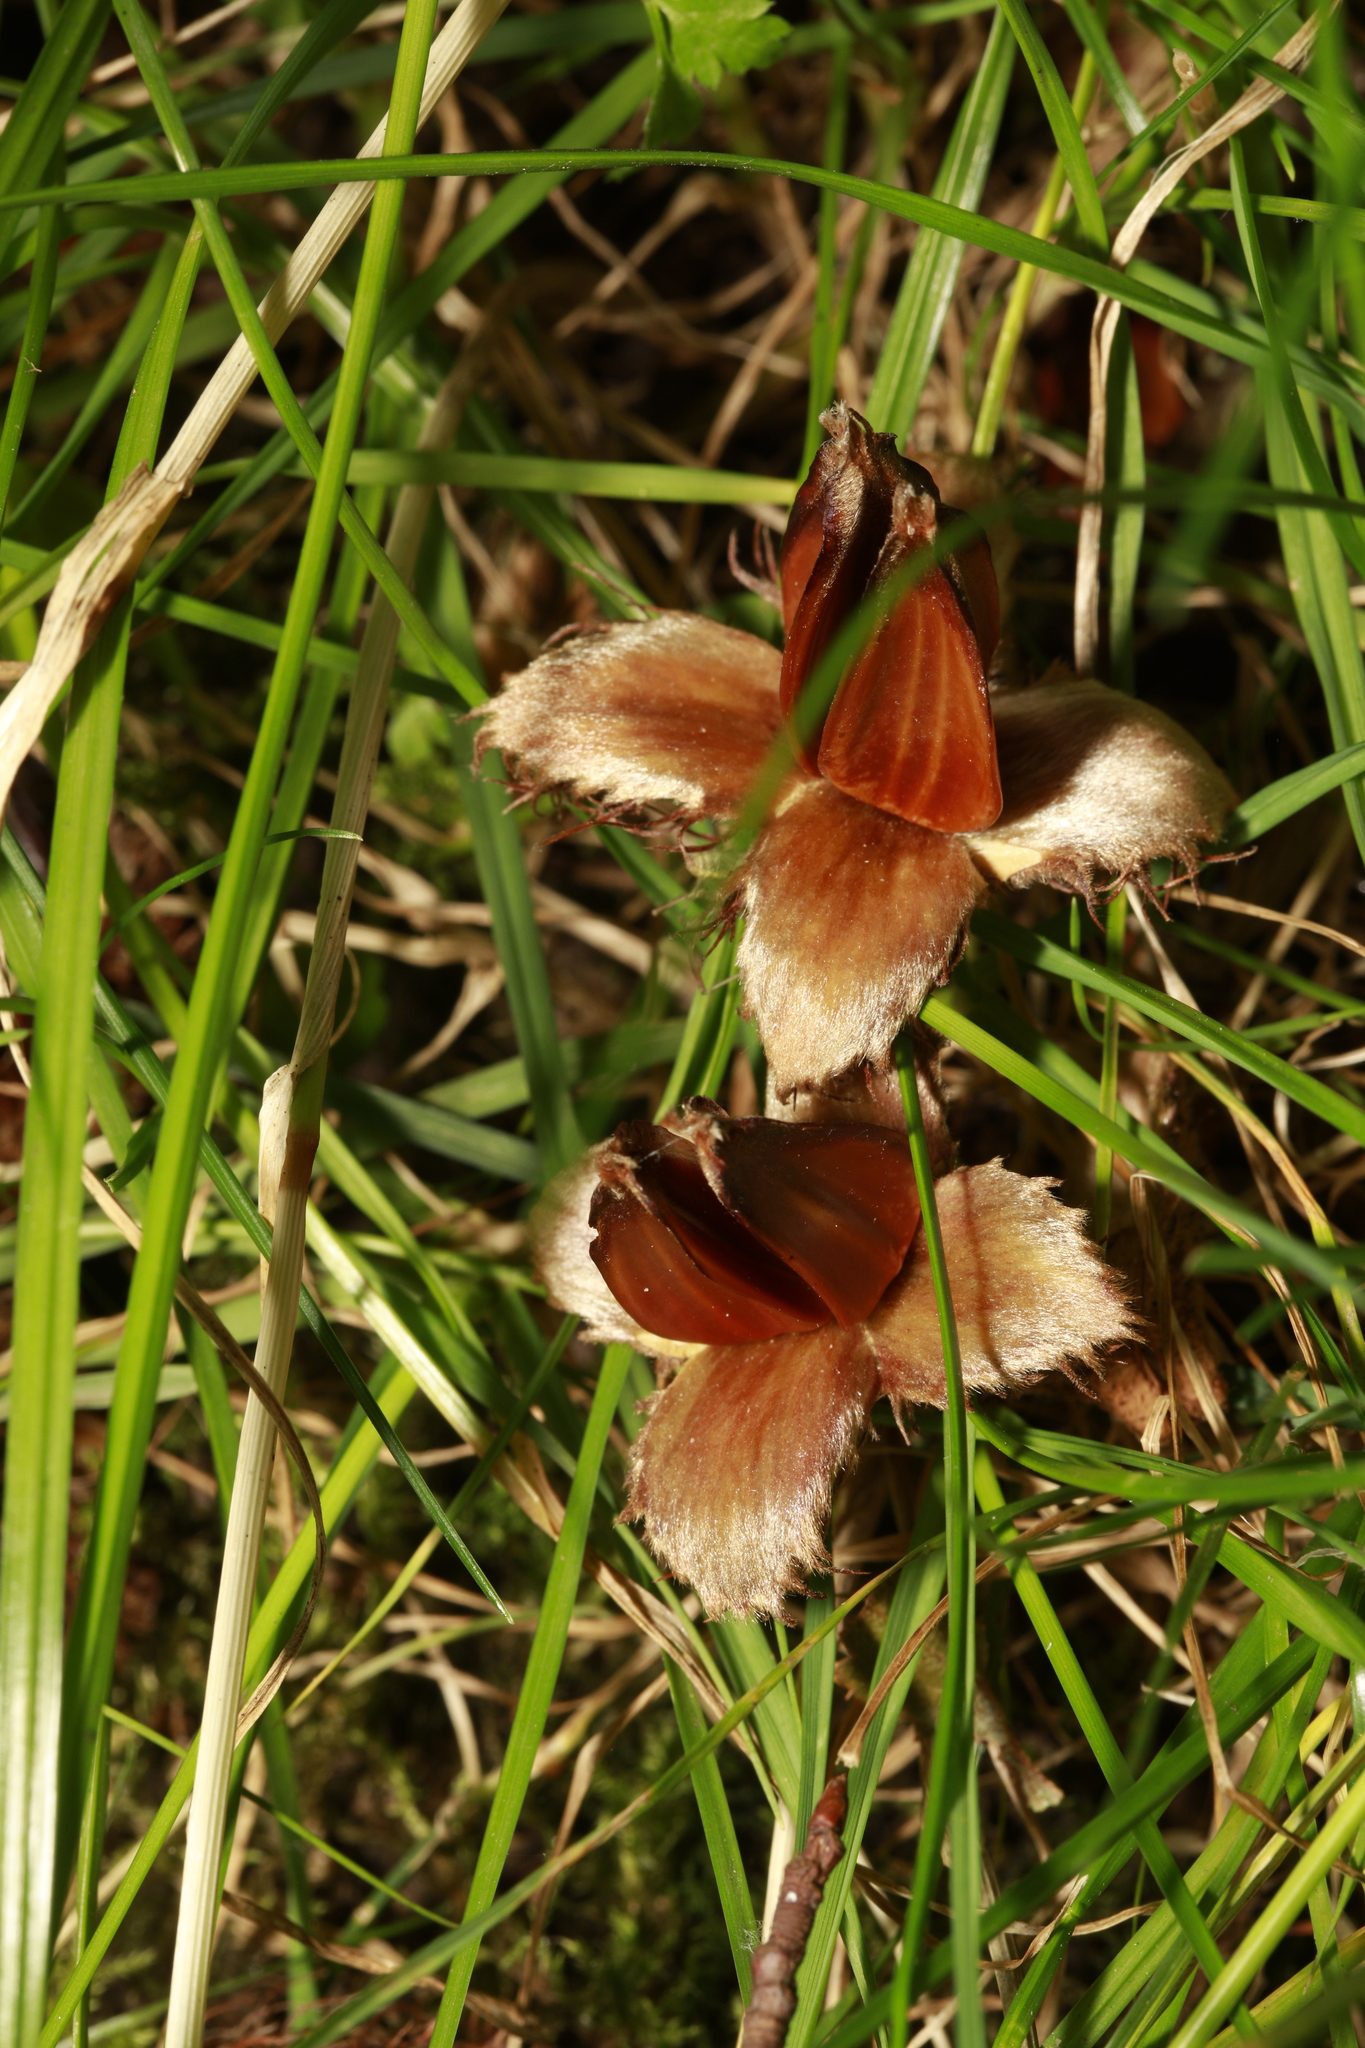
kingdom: Plantae
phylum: Tracheophyta
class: Magnoliopsida
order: Fagales
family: Fagaceae
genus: Fagus
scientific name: Fagus sylvatica
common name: Beech
